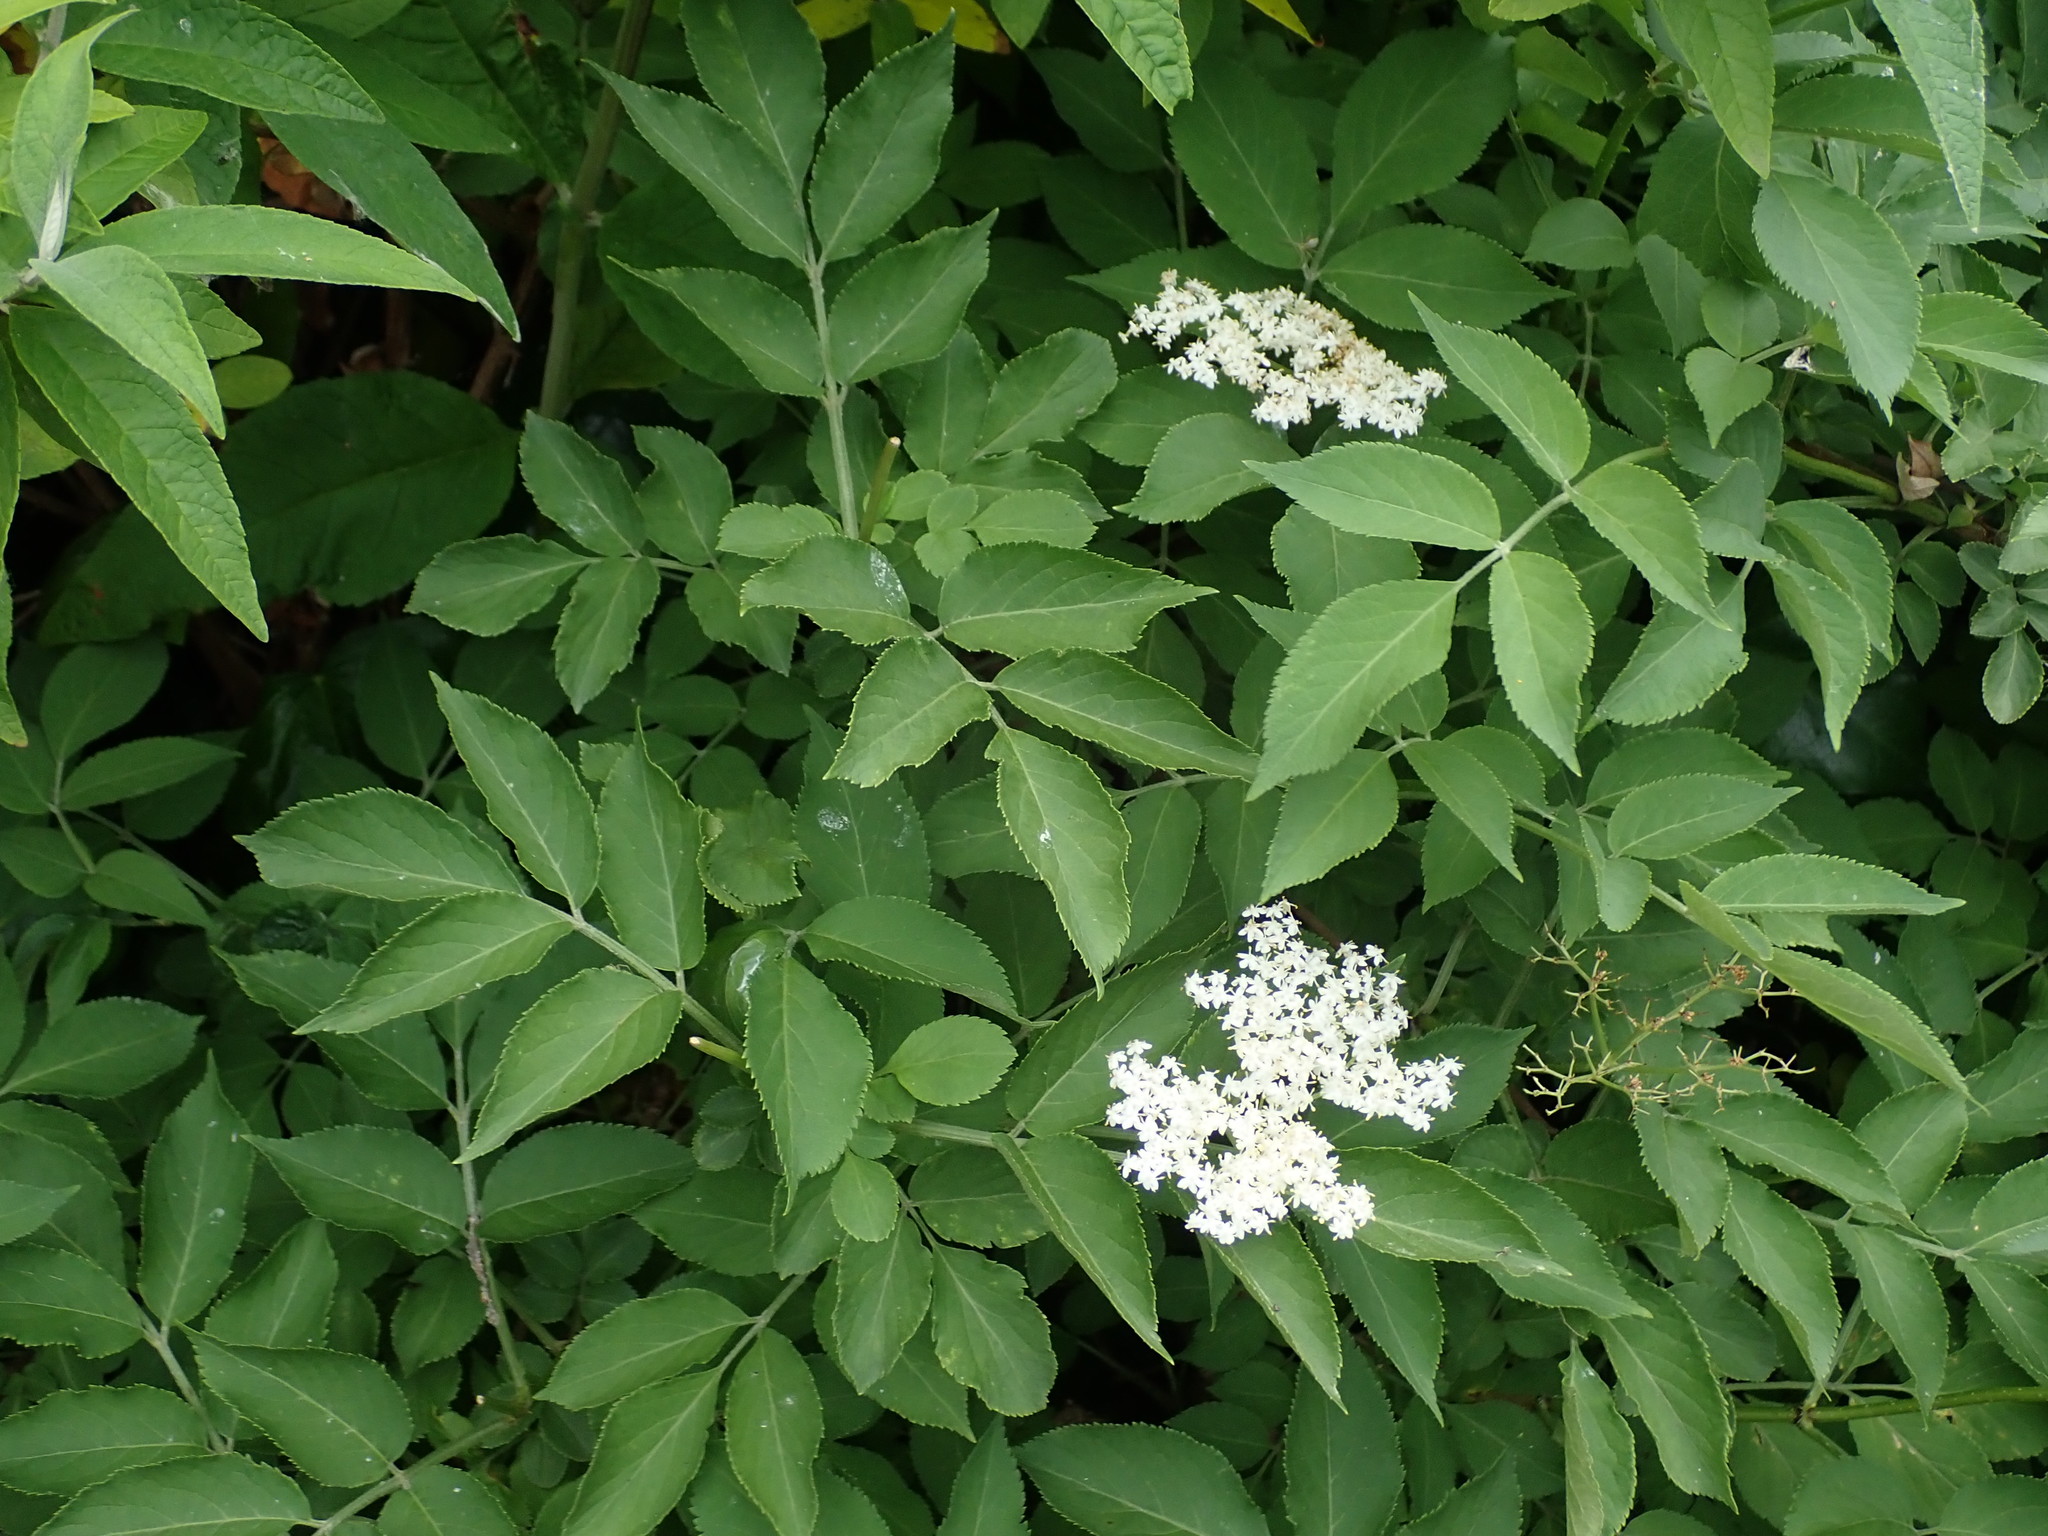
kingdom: Plantae
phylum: Tracheophyta
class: Magnoliopsida
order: Dipsacales
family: Viburnaceae
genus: Sambucus
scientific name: Sambucus nigra
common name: Elder
